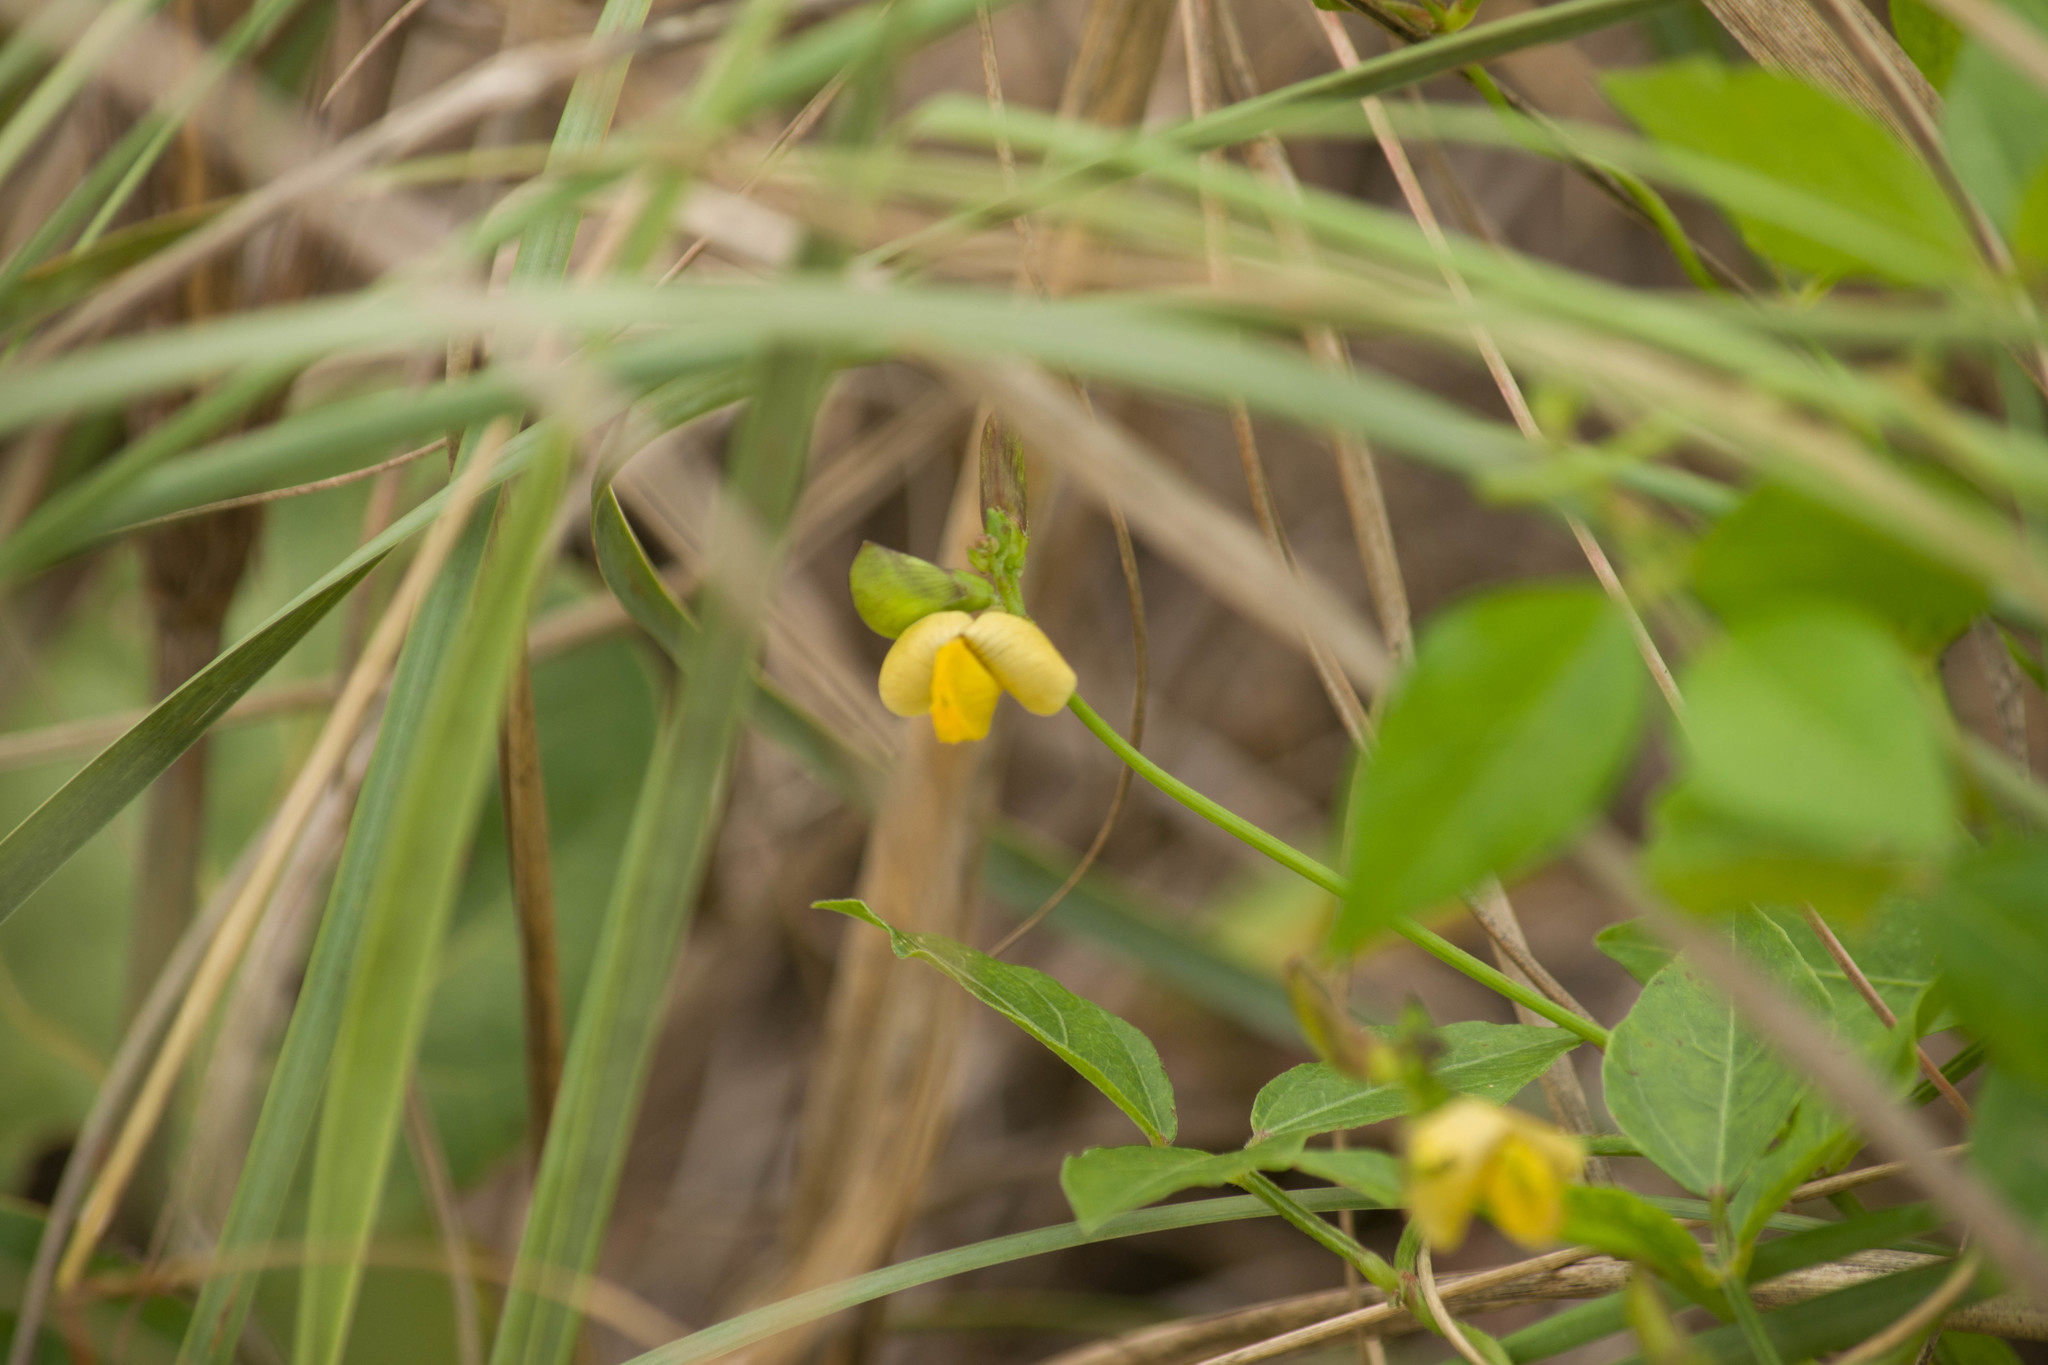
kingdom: Plantae
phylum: Tracheophyta
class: Magnoliopsida
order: Fabales
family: Fabaceae
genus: Vigna
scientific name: Vigna luteola
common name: Hairypod cowpea
